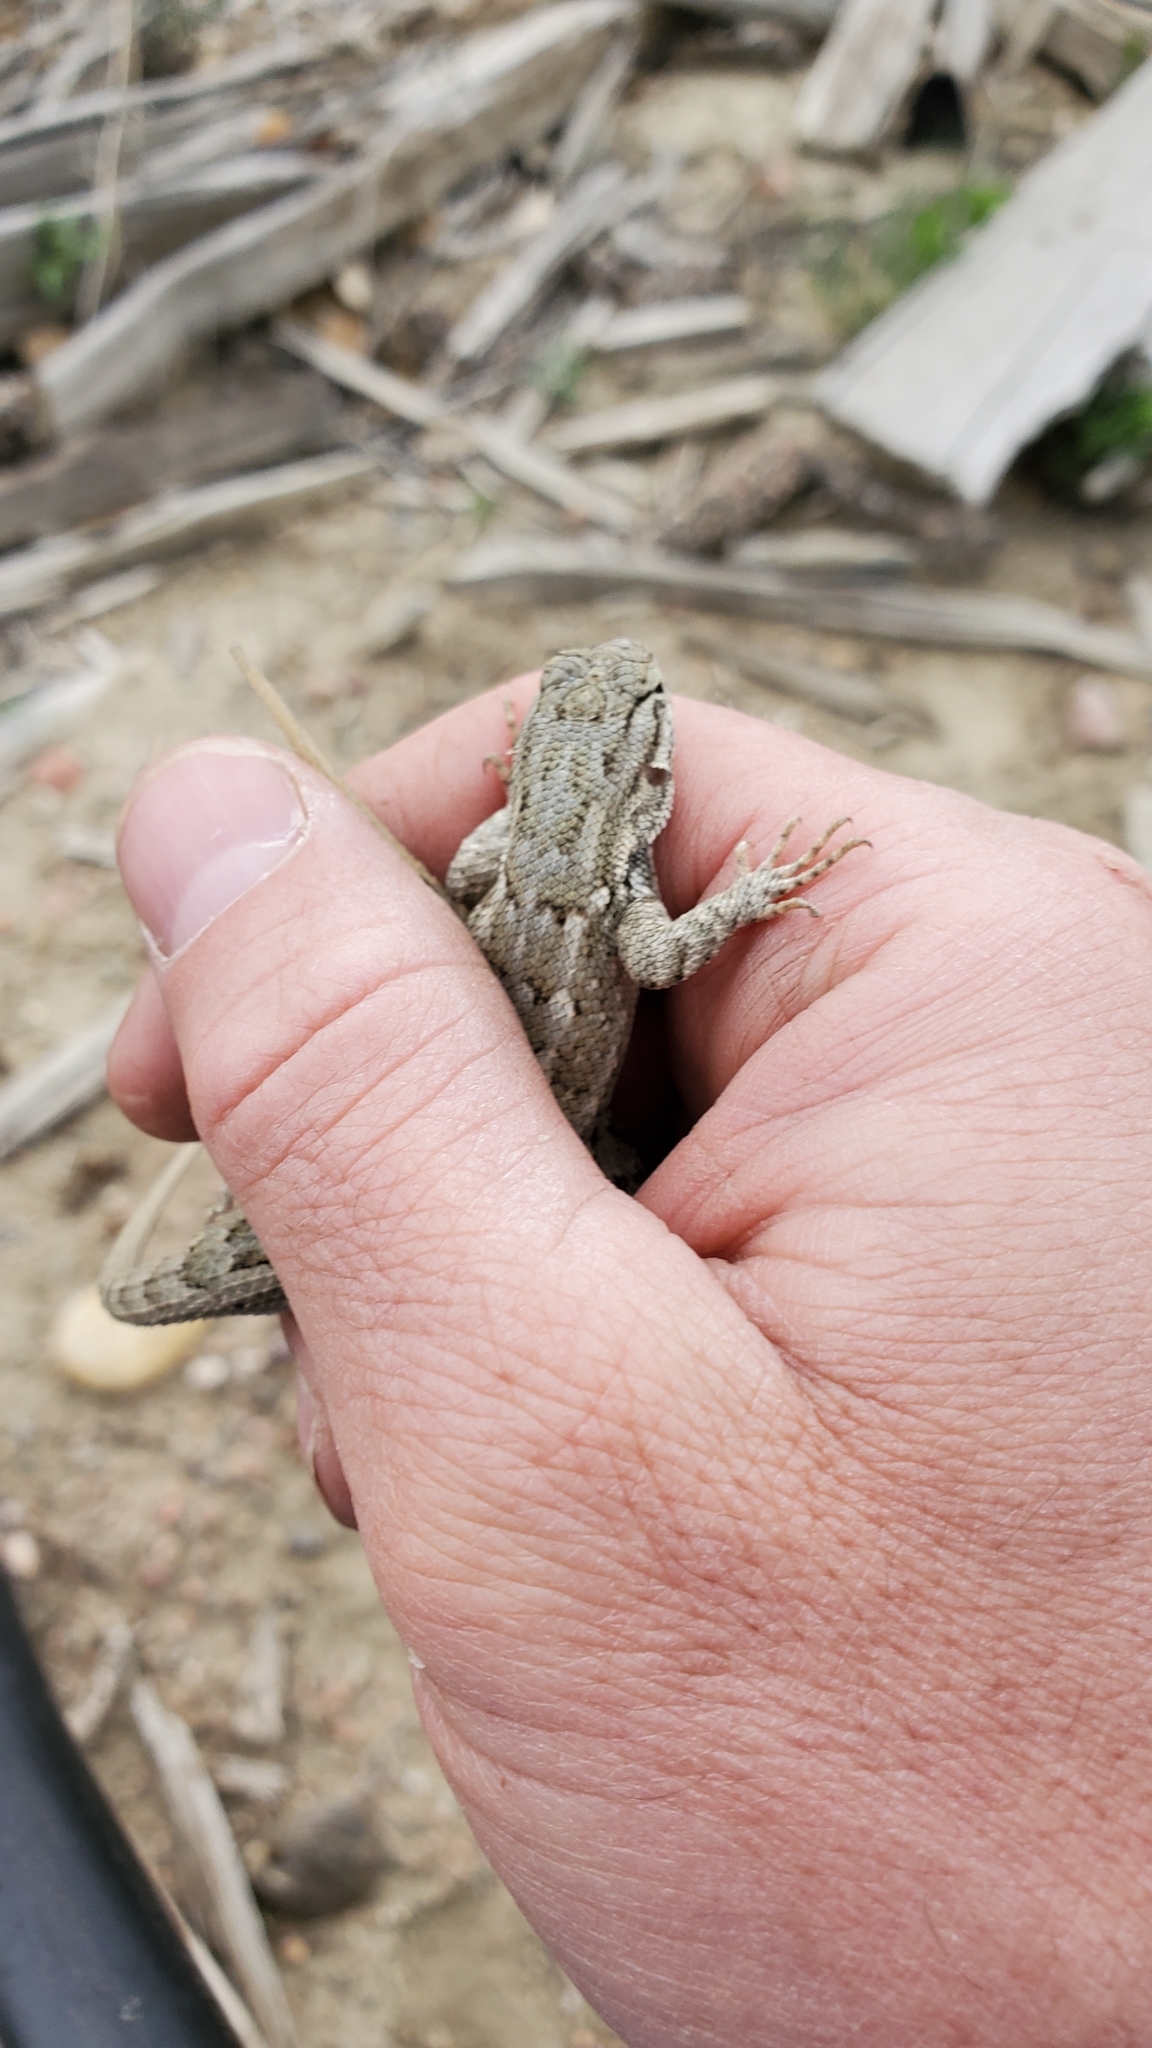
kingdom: Animalia
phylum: Chordata
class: Squamata
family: Phrynosomatidae
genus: Sceloporus
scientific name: Sceloporus consobrinus
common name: Southern prairie lizard
